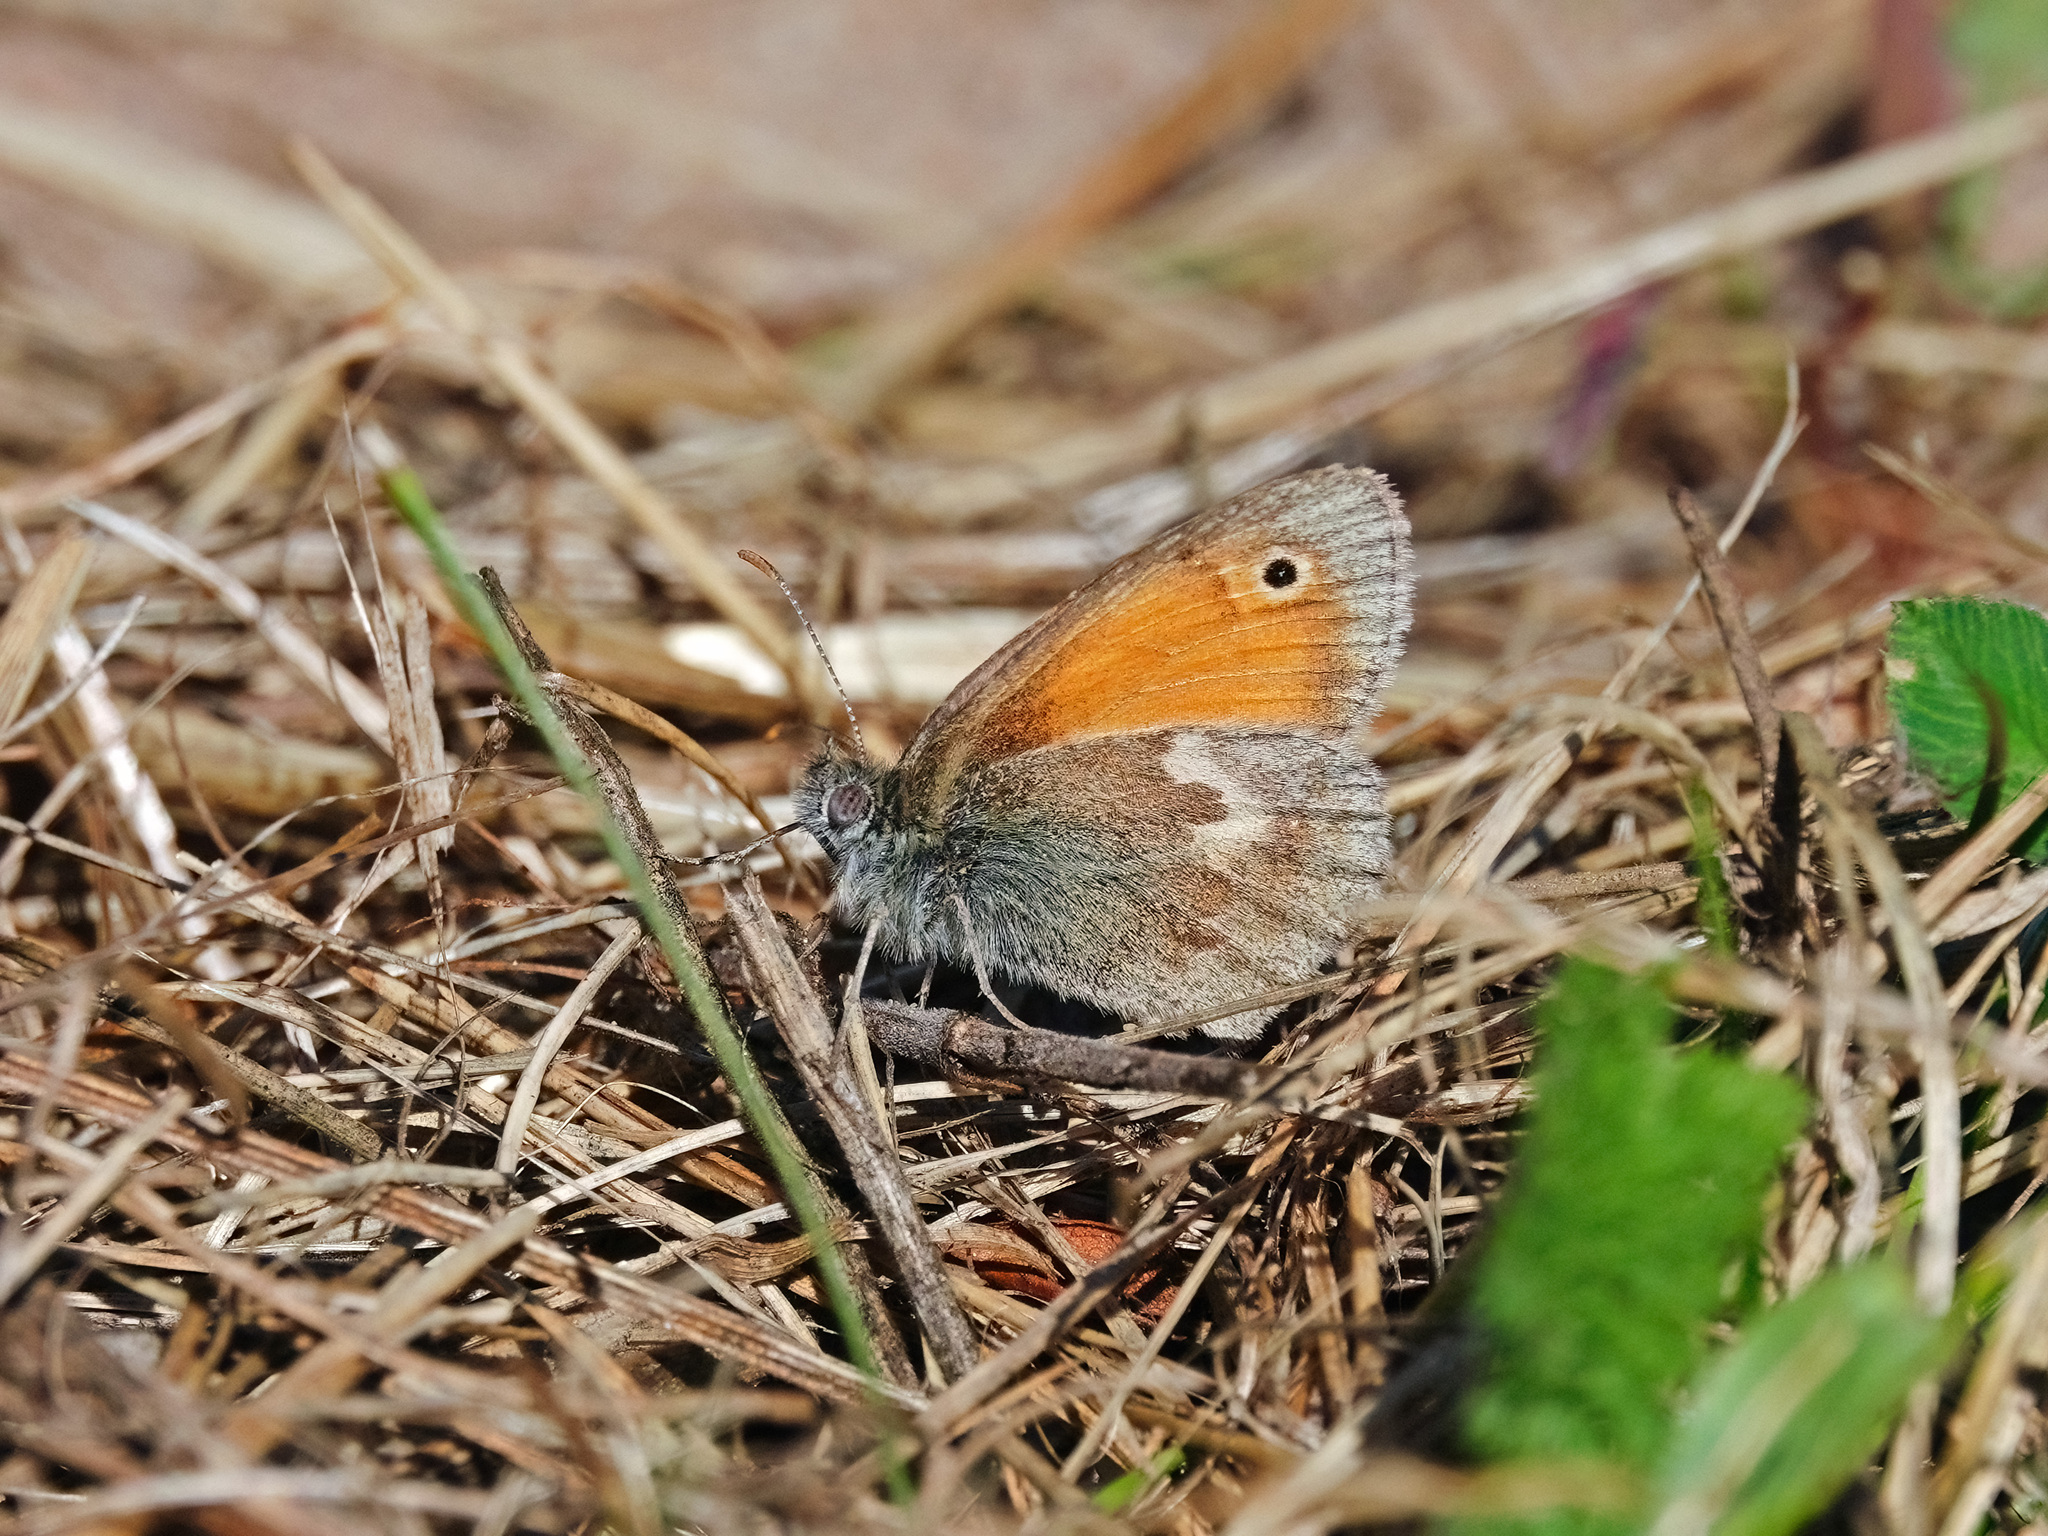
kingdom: Animalia
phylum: Arthropoda
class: Insecta
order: Lepidoptera
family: Nymphalidae
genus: Coenonympha
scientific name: Coenonympha pamphilus
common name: Small heath
